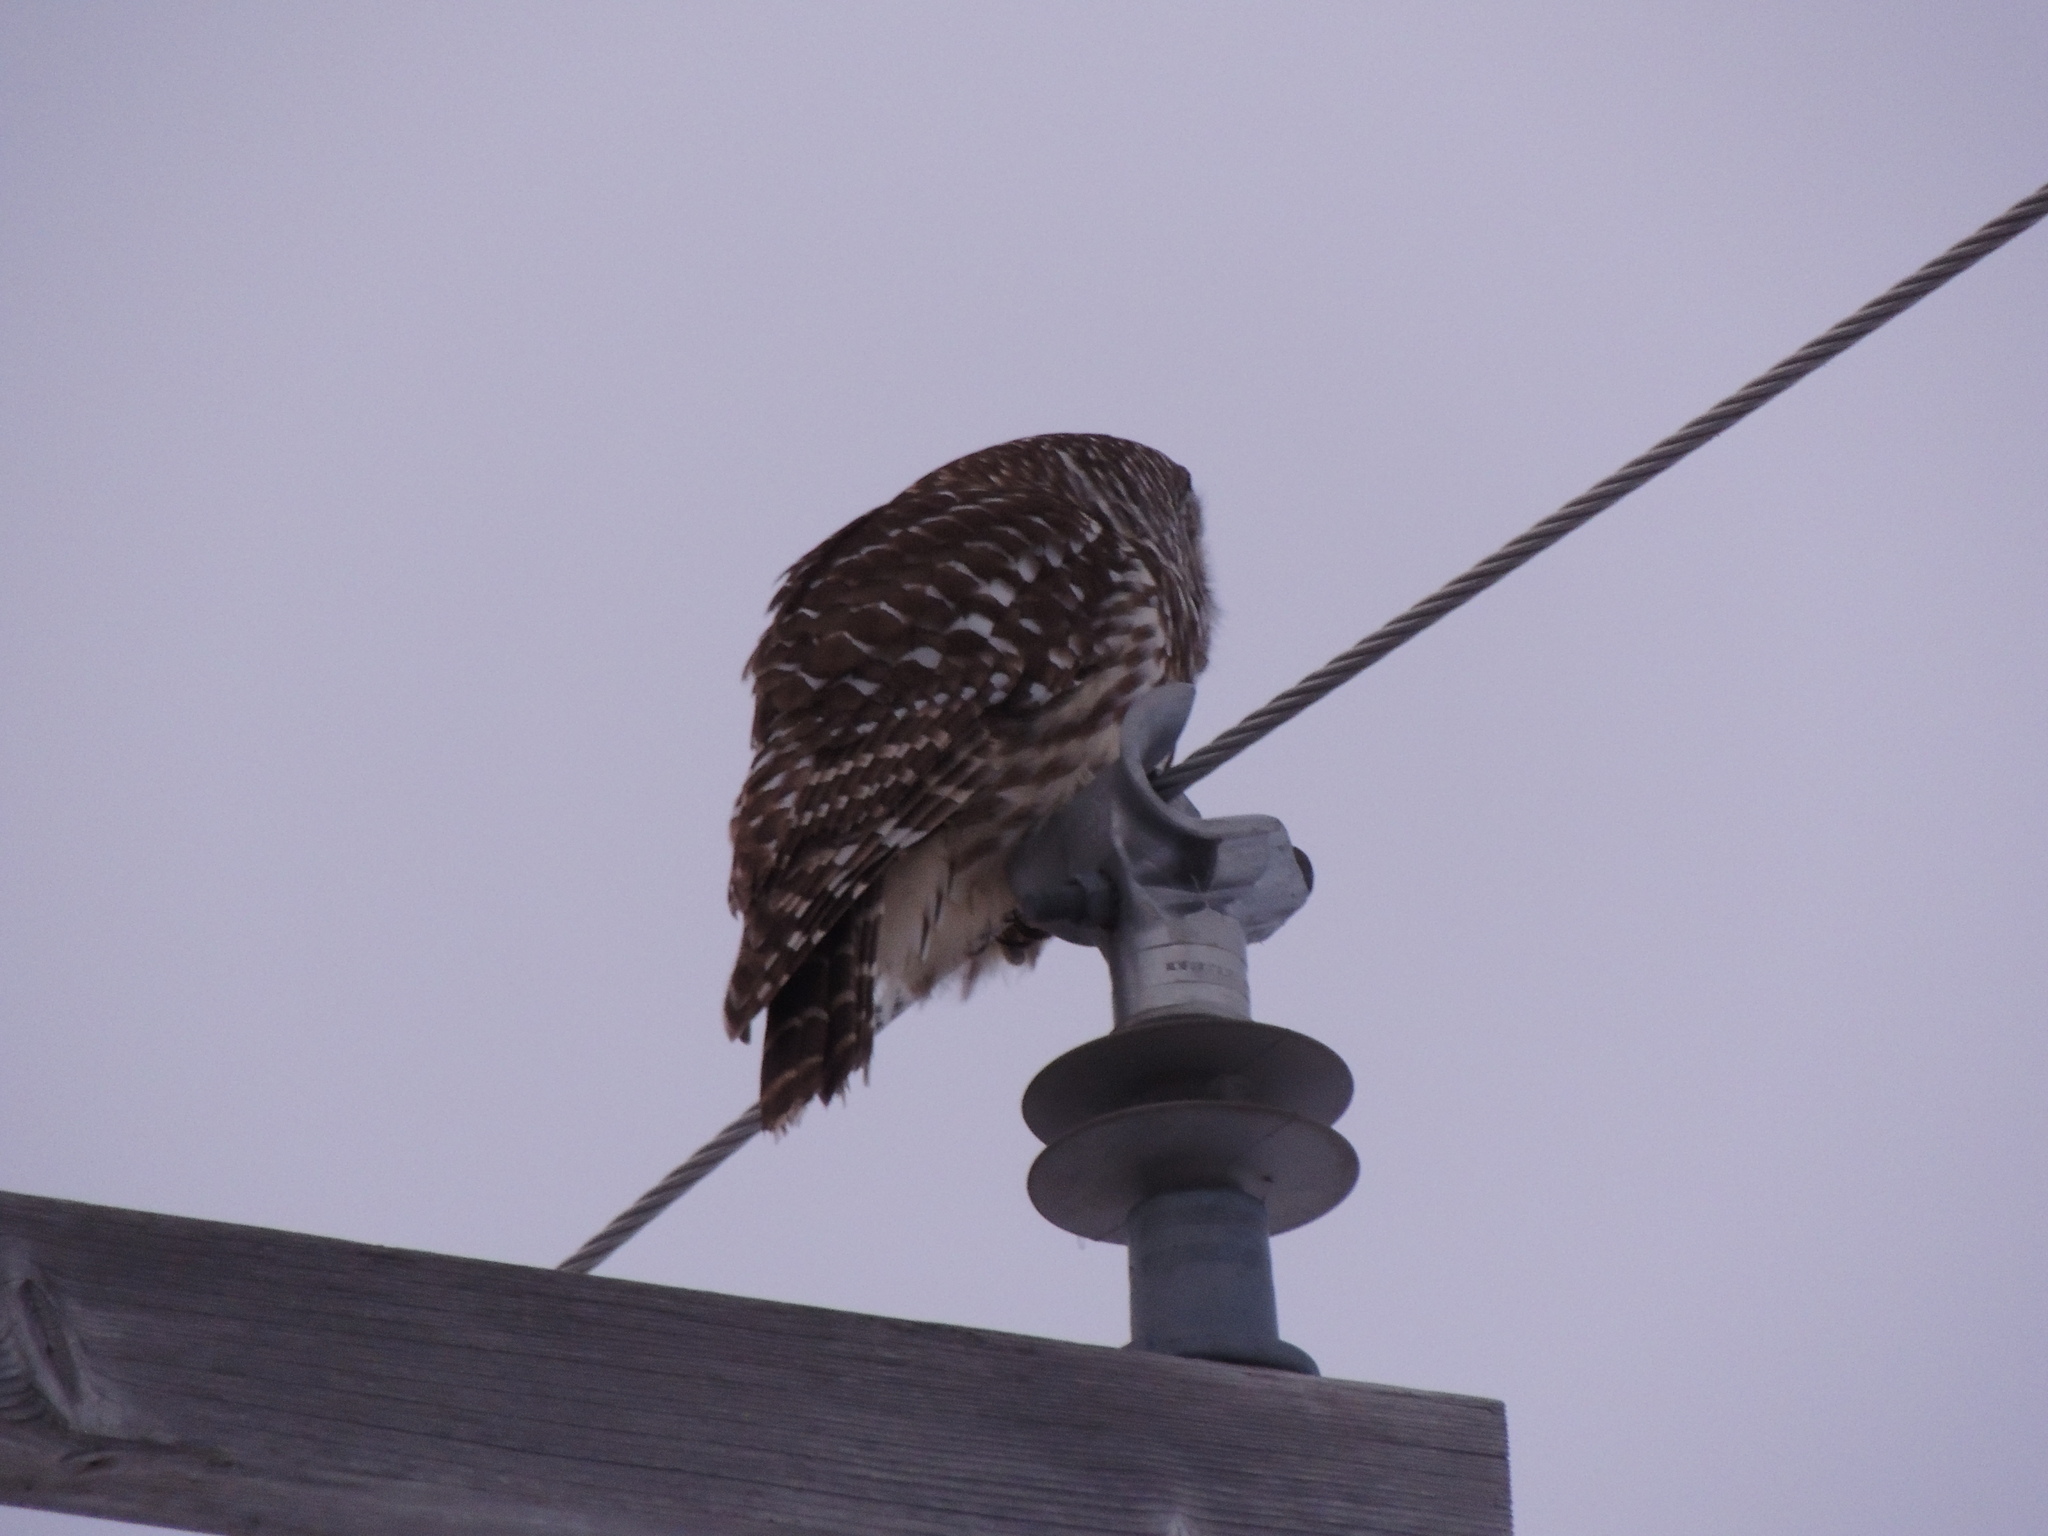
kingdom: Animalia
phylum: Chordata
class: Aves
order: Strigiformes
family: Strigidae
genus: Strix
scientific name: Strix varia
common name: Barred owl
